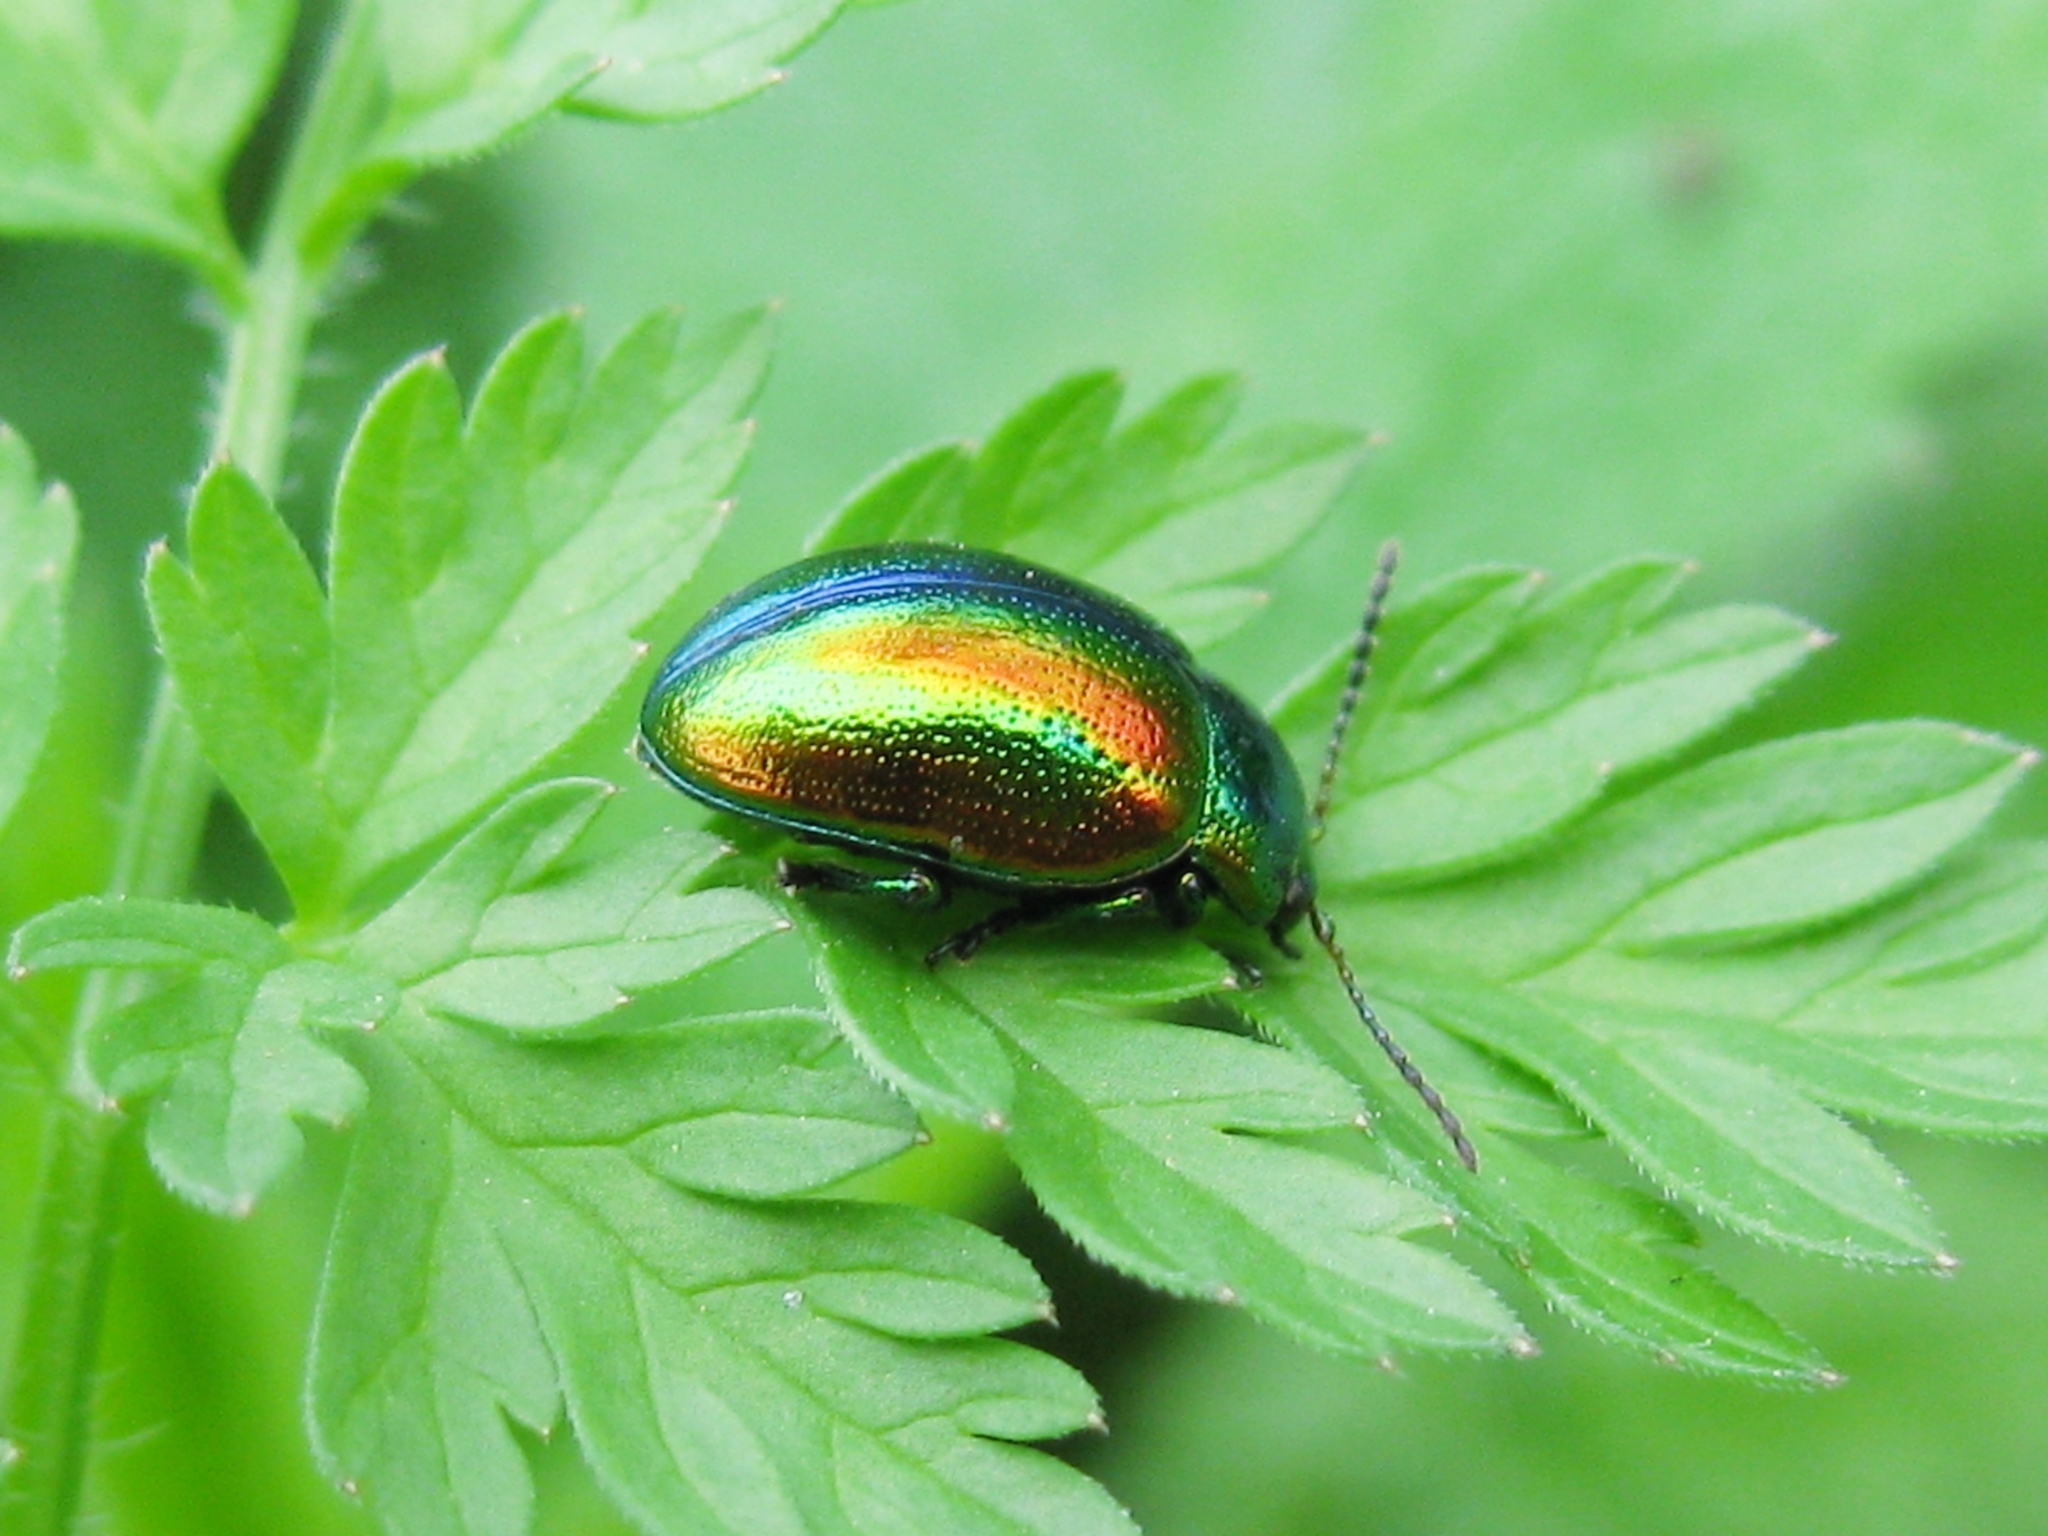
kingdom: Animalia
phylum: Arthropoda
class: Insecta
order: Coleoptera
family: Chrysomelidae
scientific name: Chrysomelidae
